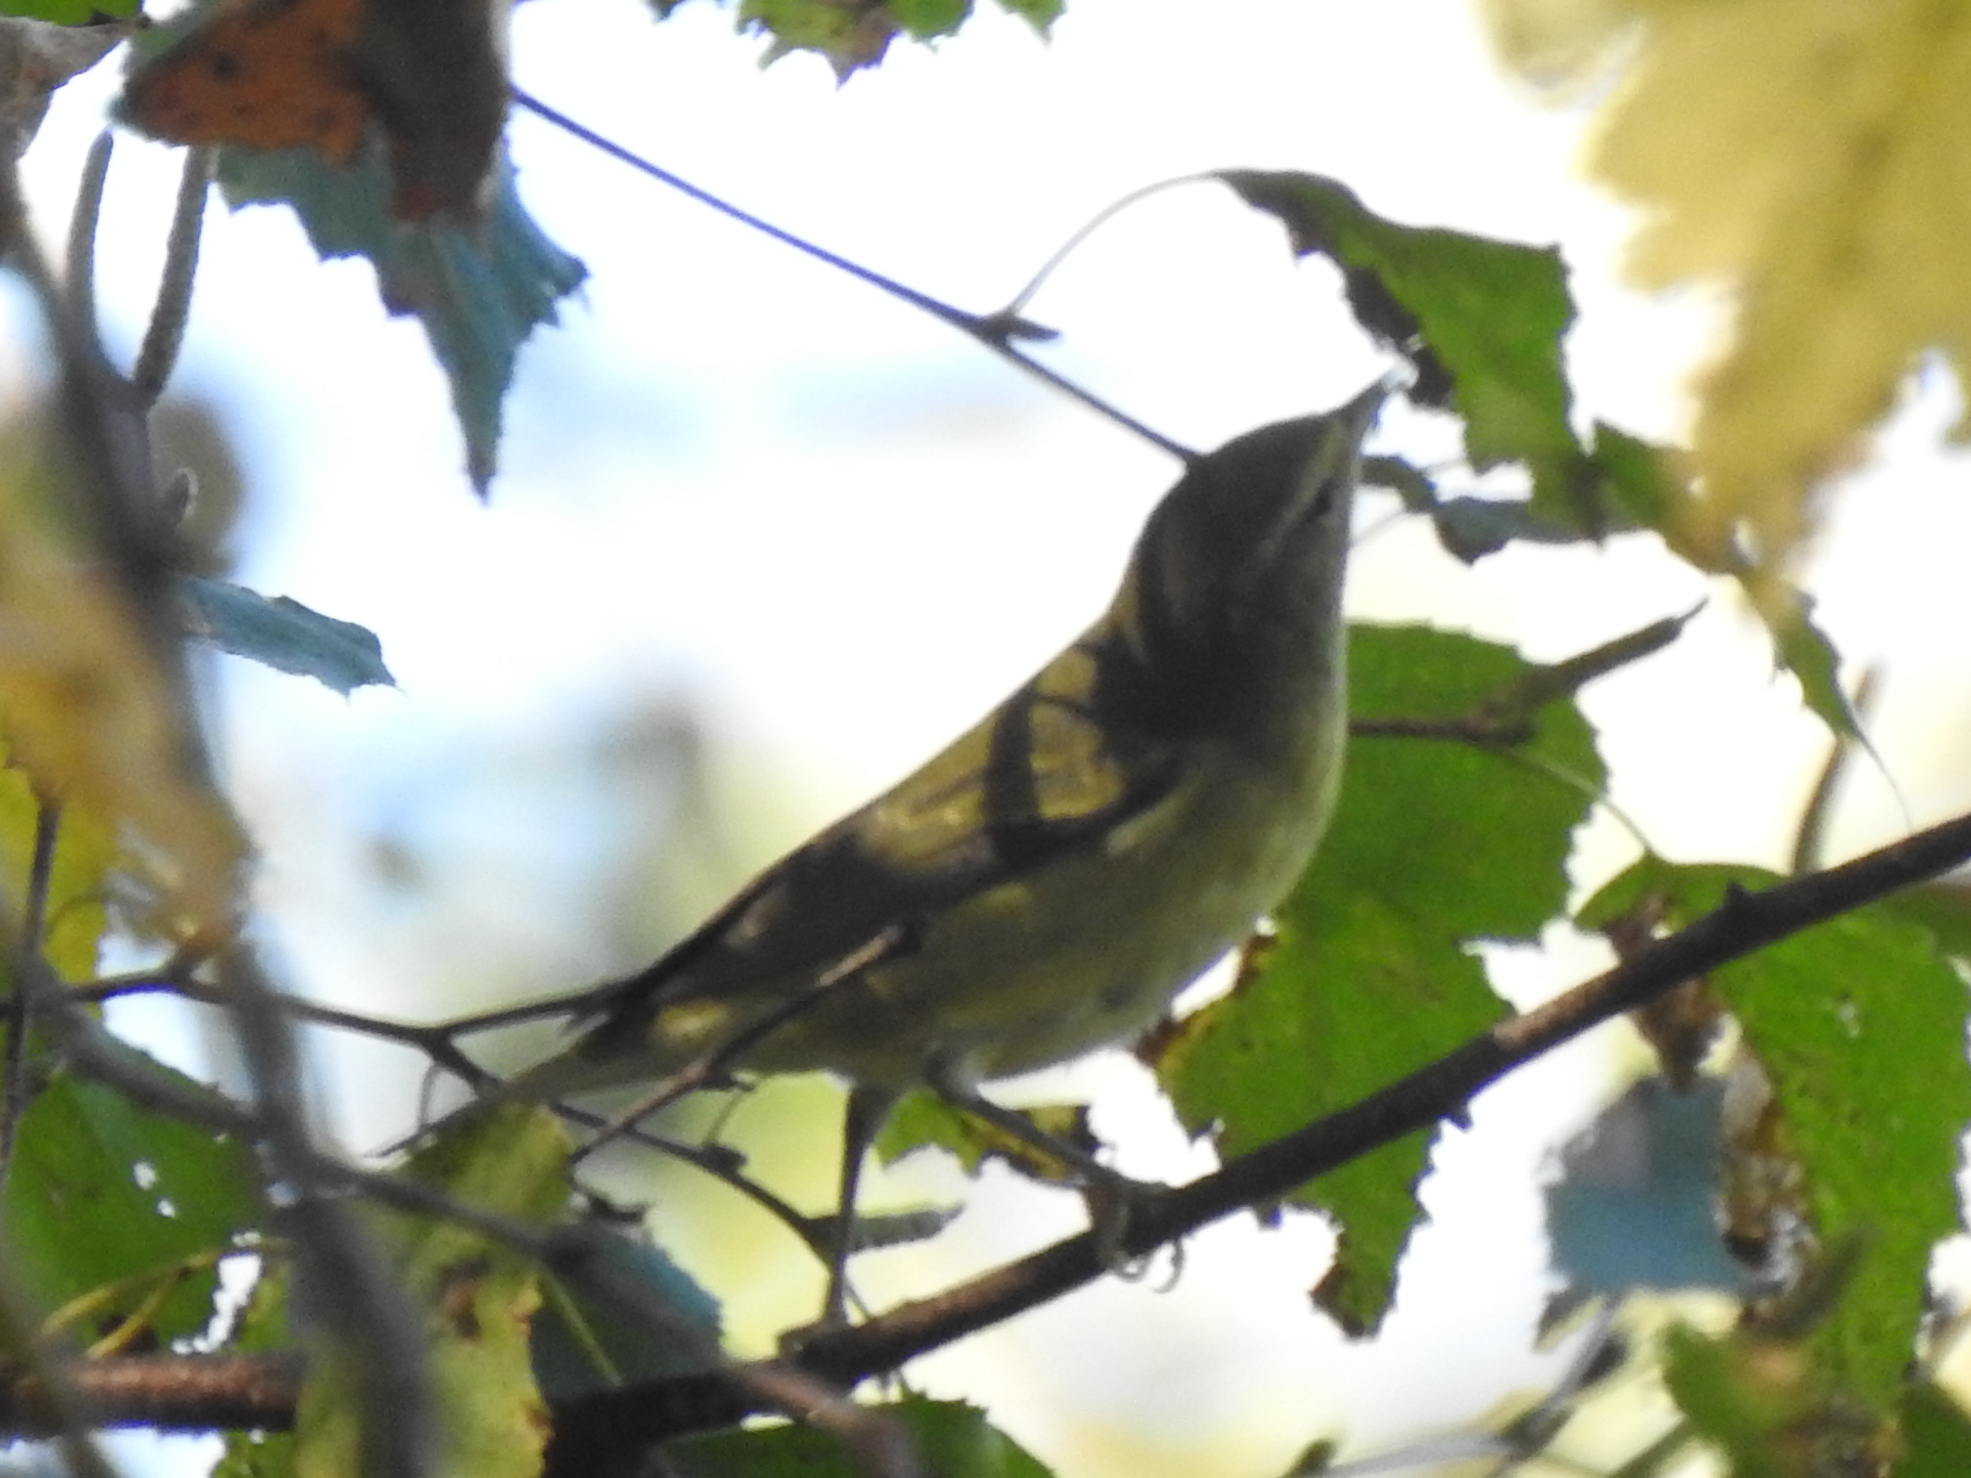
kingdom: Animalia
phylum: Chordata
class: Aves
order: Passeriformes
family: Vireonidae
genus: Vireo
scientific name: Vireo olivaceus
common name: Red-eyed vireo
